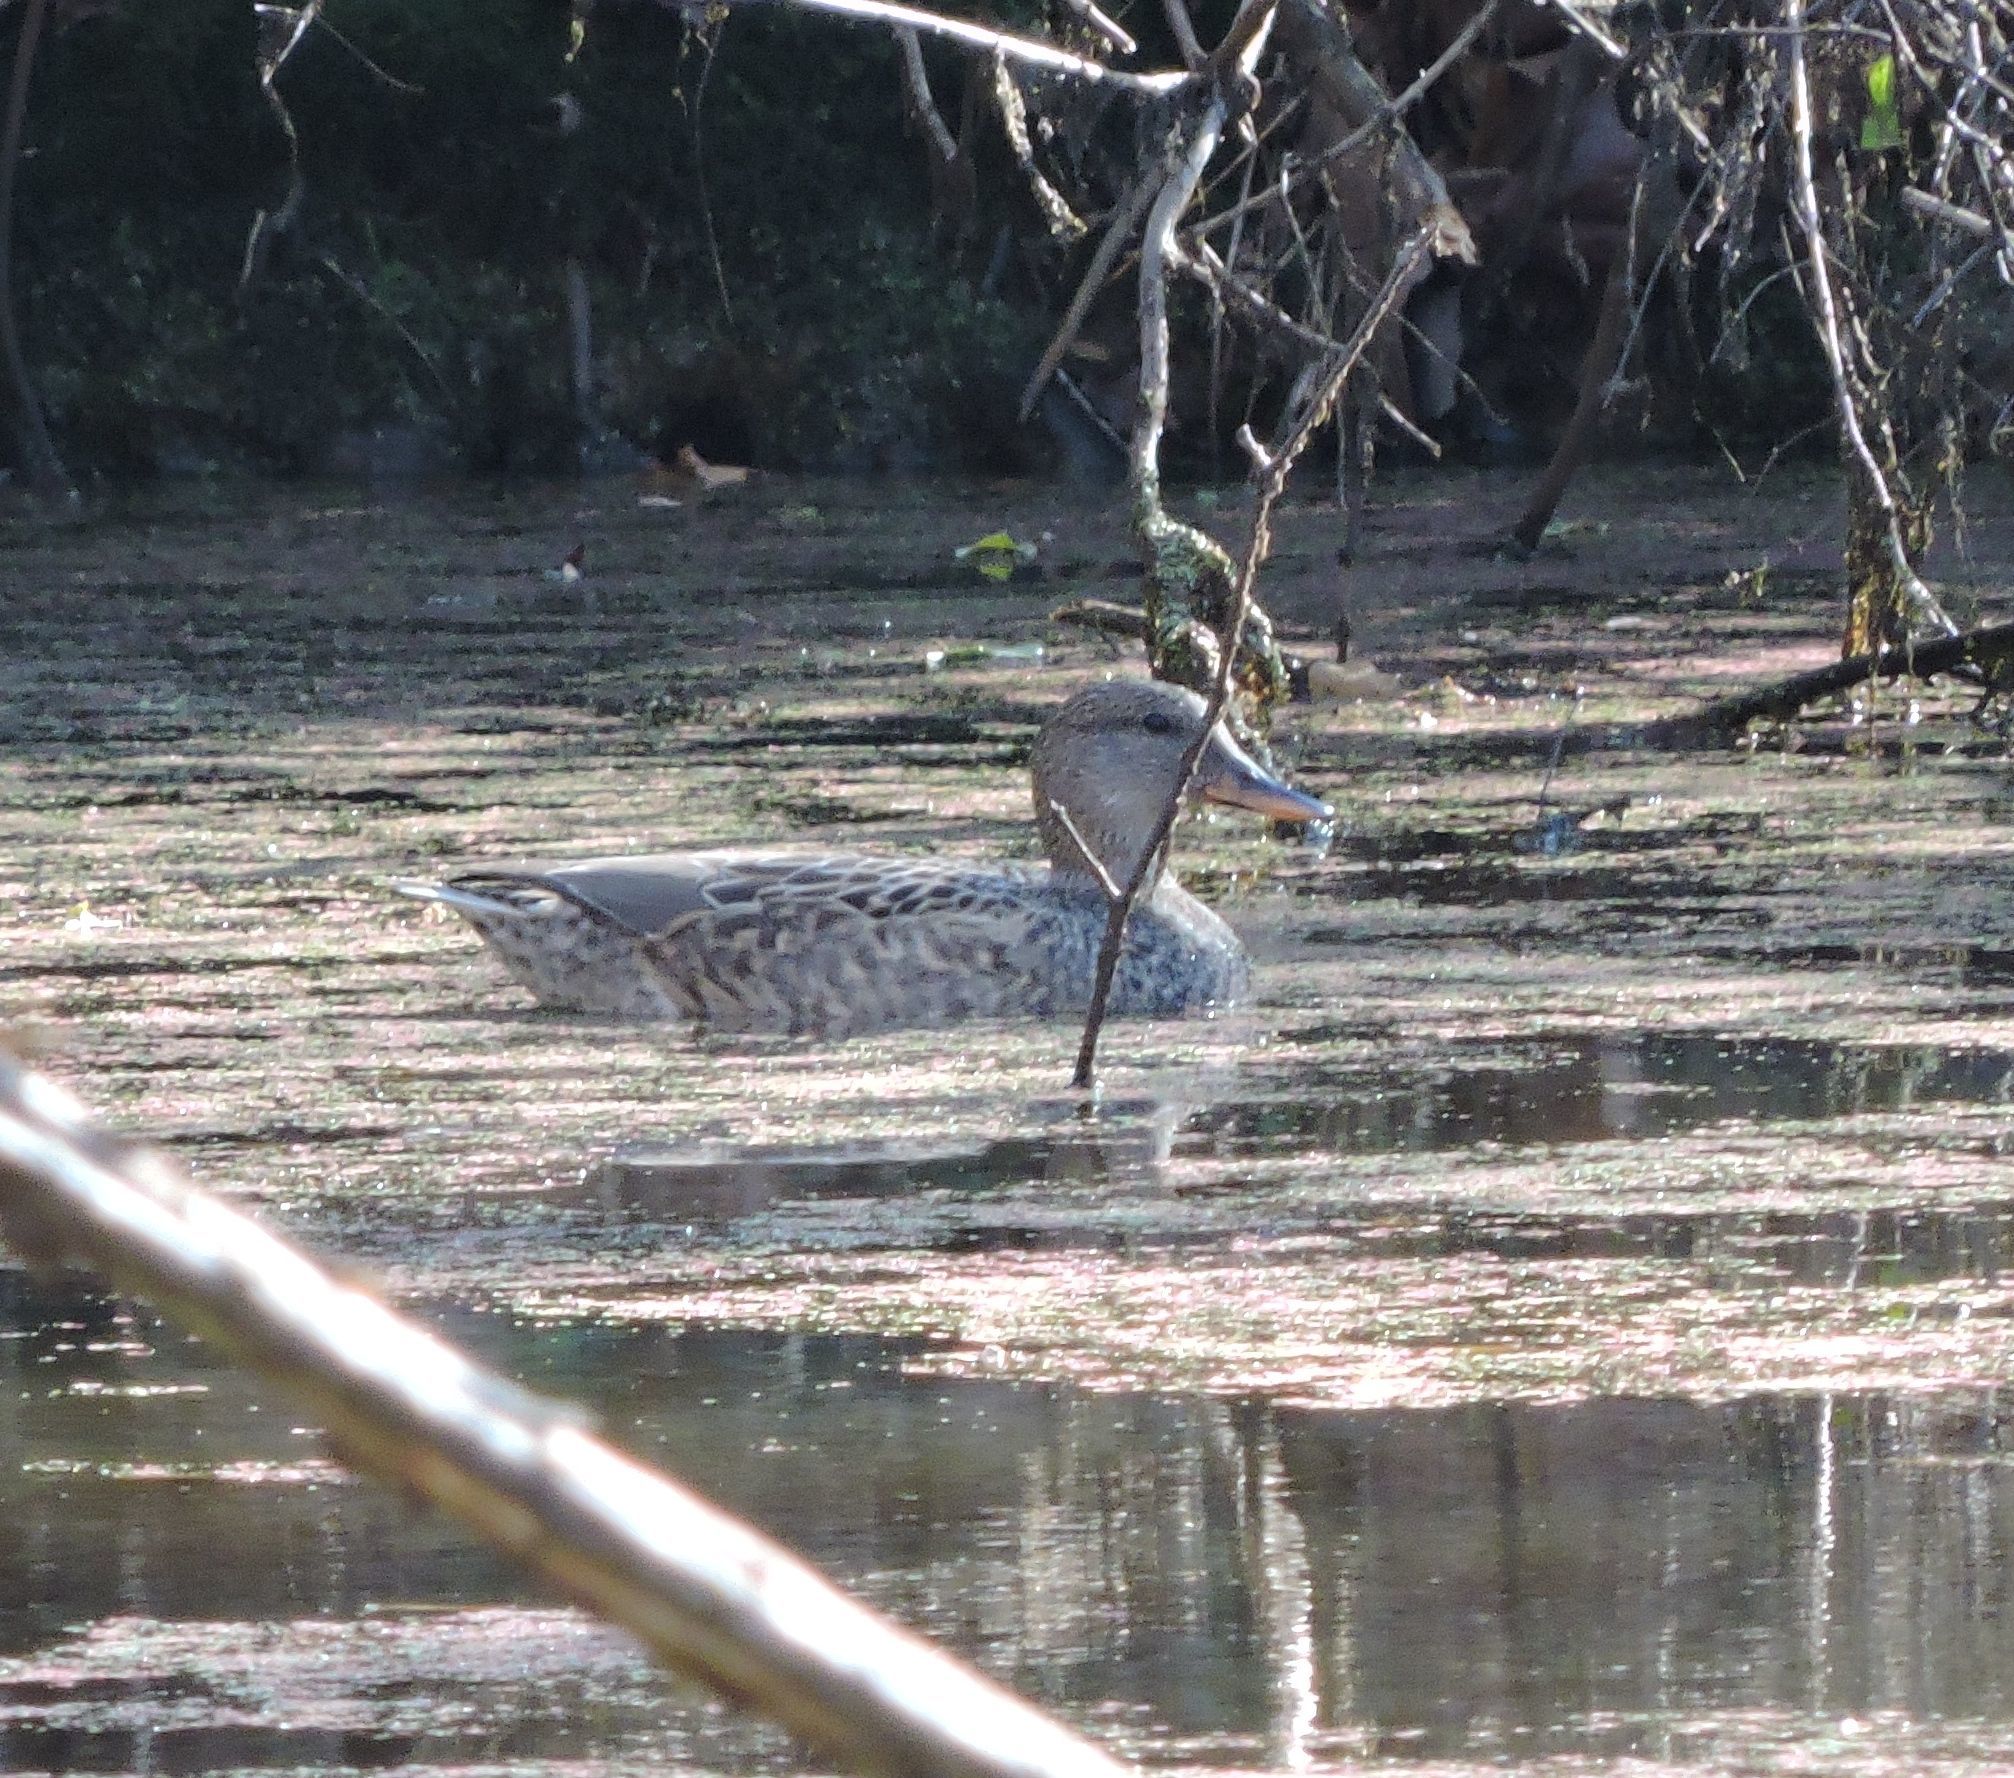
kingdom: Animalia
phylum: Chordata
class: Aves
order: Anseriformes
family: Anatidae
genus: Anas
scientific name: Anas platyrhynchos
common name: Mallard
